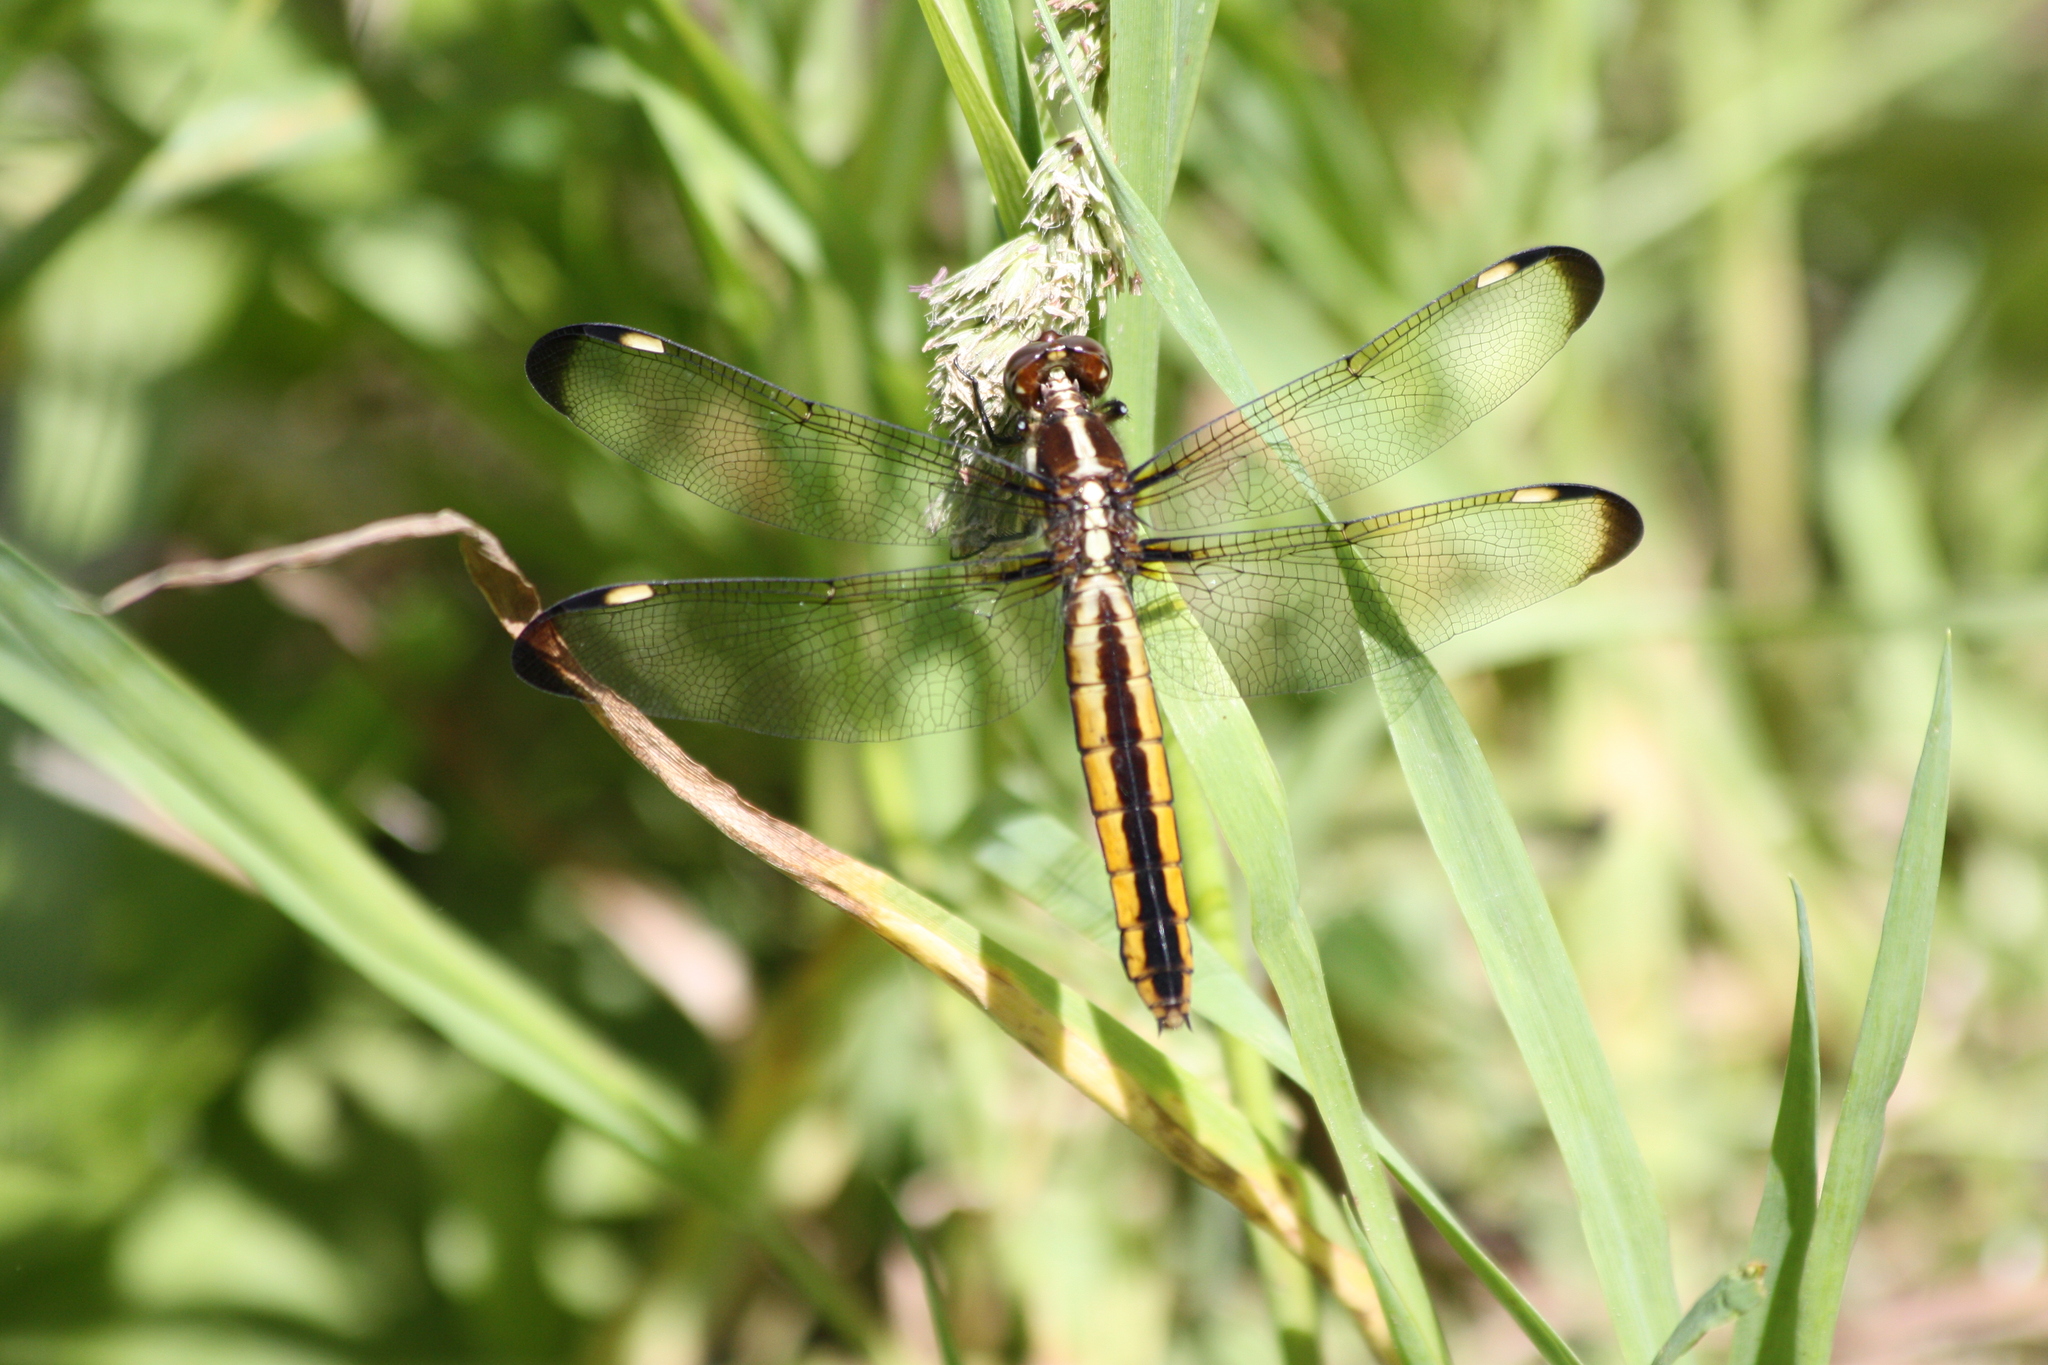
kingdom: Animalia
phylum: Arthropoda
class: Insecta
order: Odonata
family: Libellulidae
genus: Libellula
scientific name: Libellula cyanea
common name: Spangled skimmer
